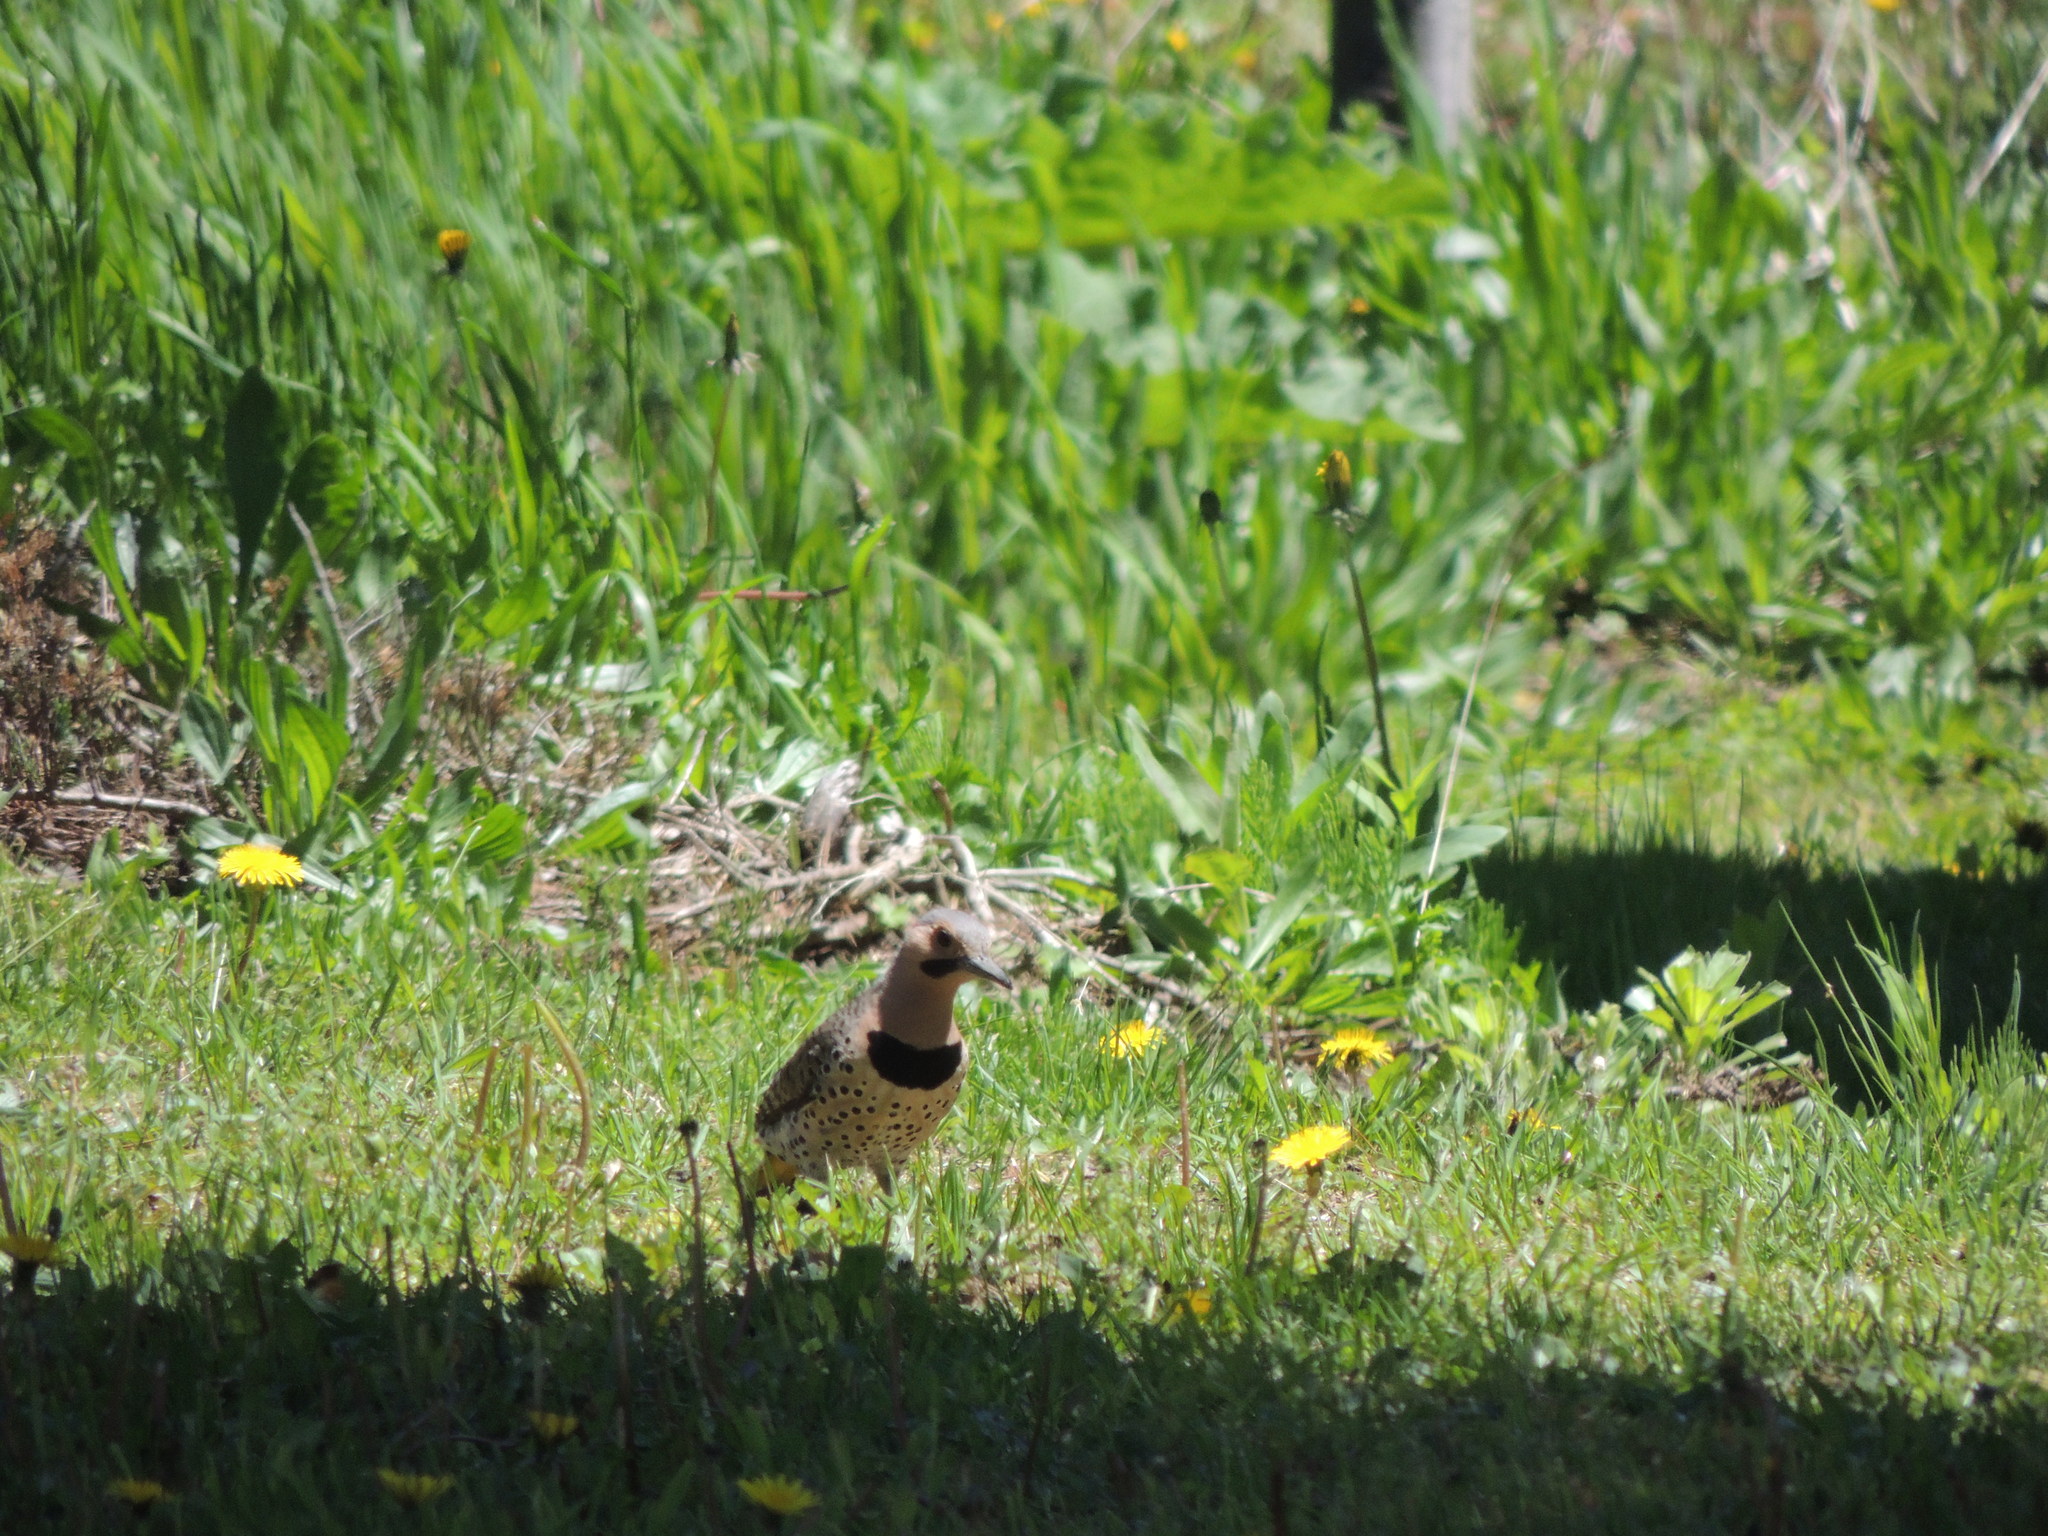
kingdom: Animalia
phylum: Chordata
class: Aves
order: Piciformes
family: Picidae
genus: Colaptes
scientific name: Colaptes auratus
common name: Northern flicker
